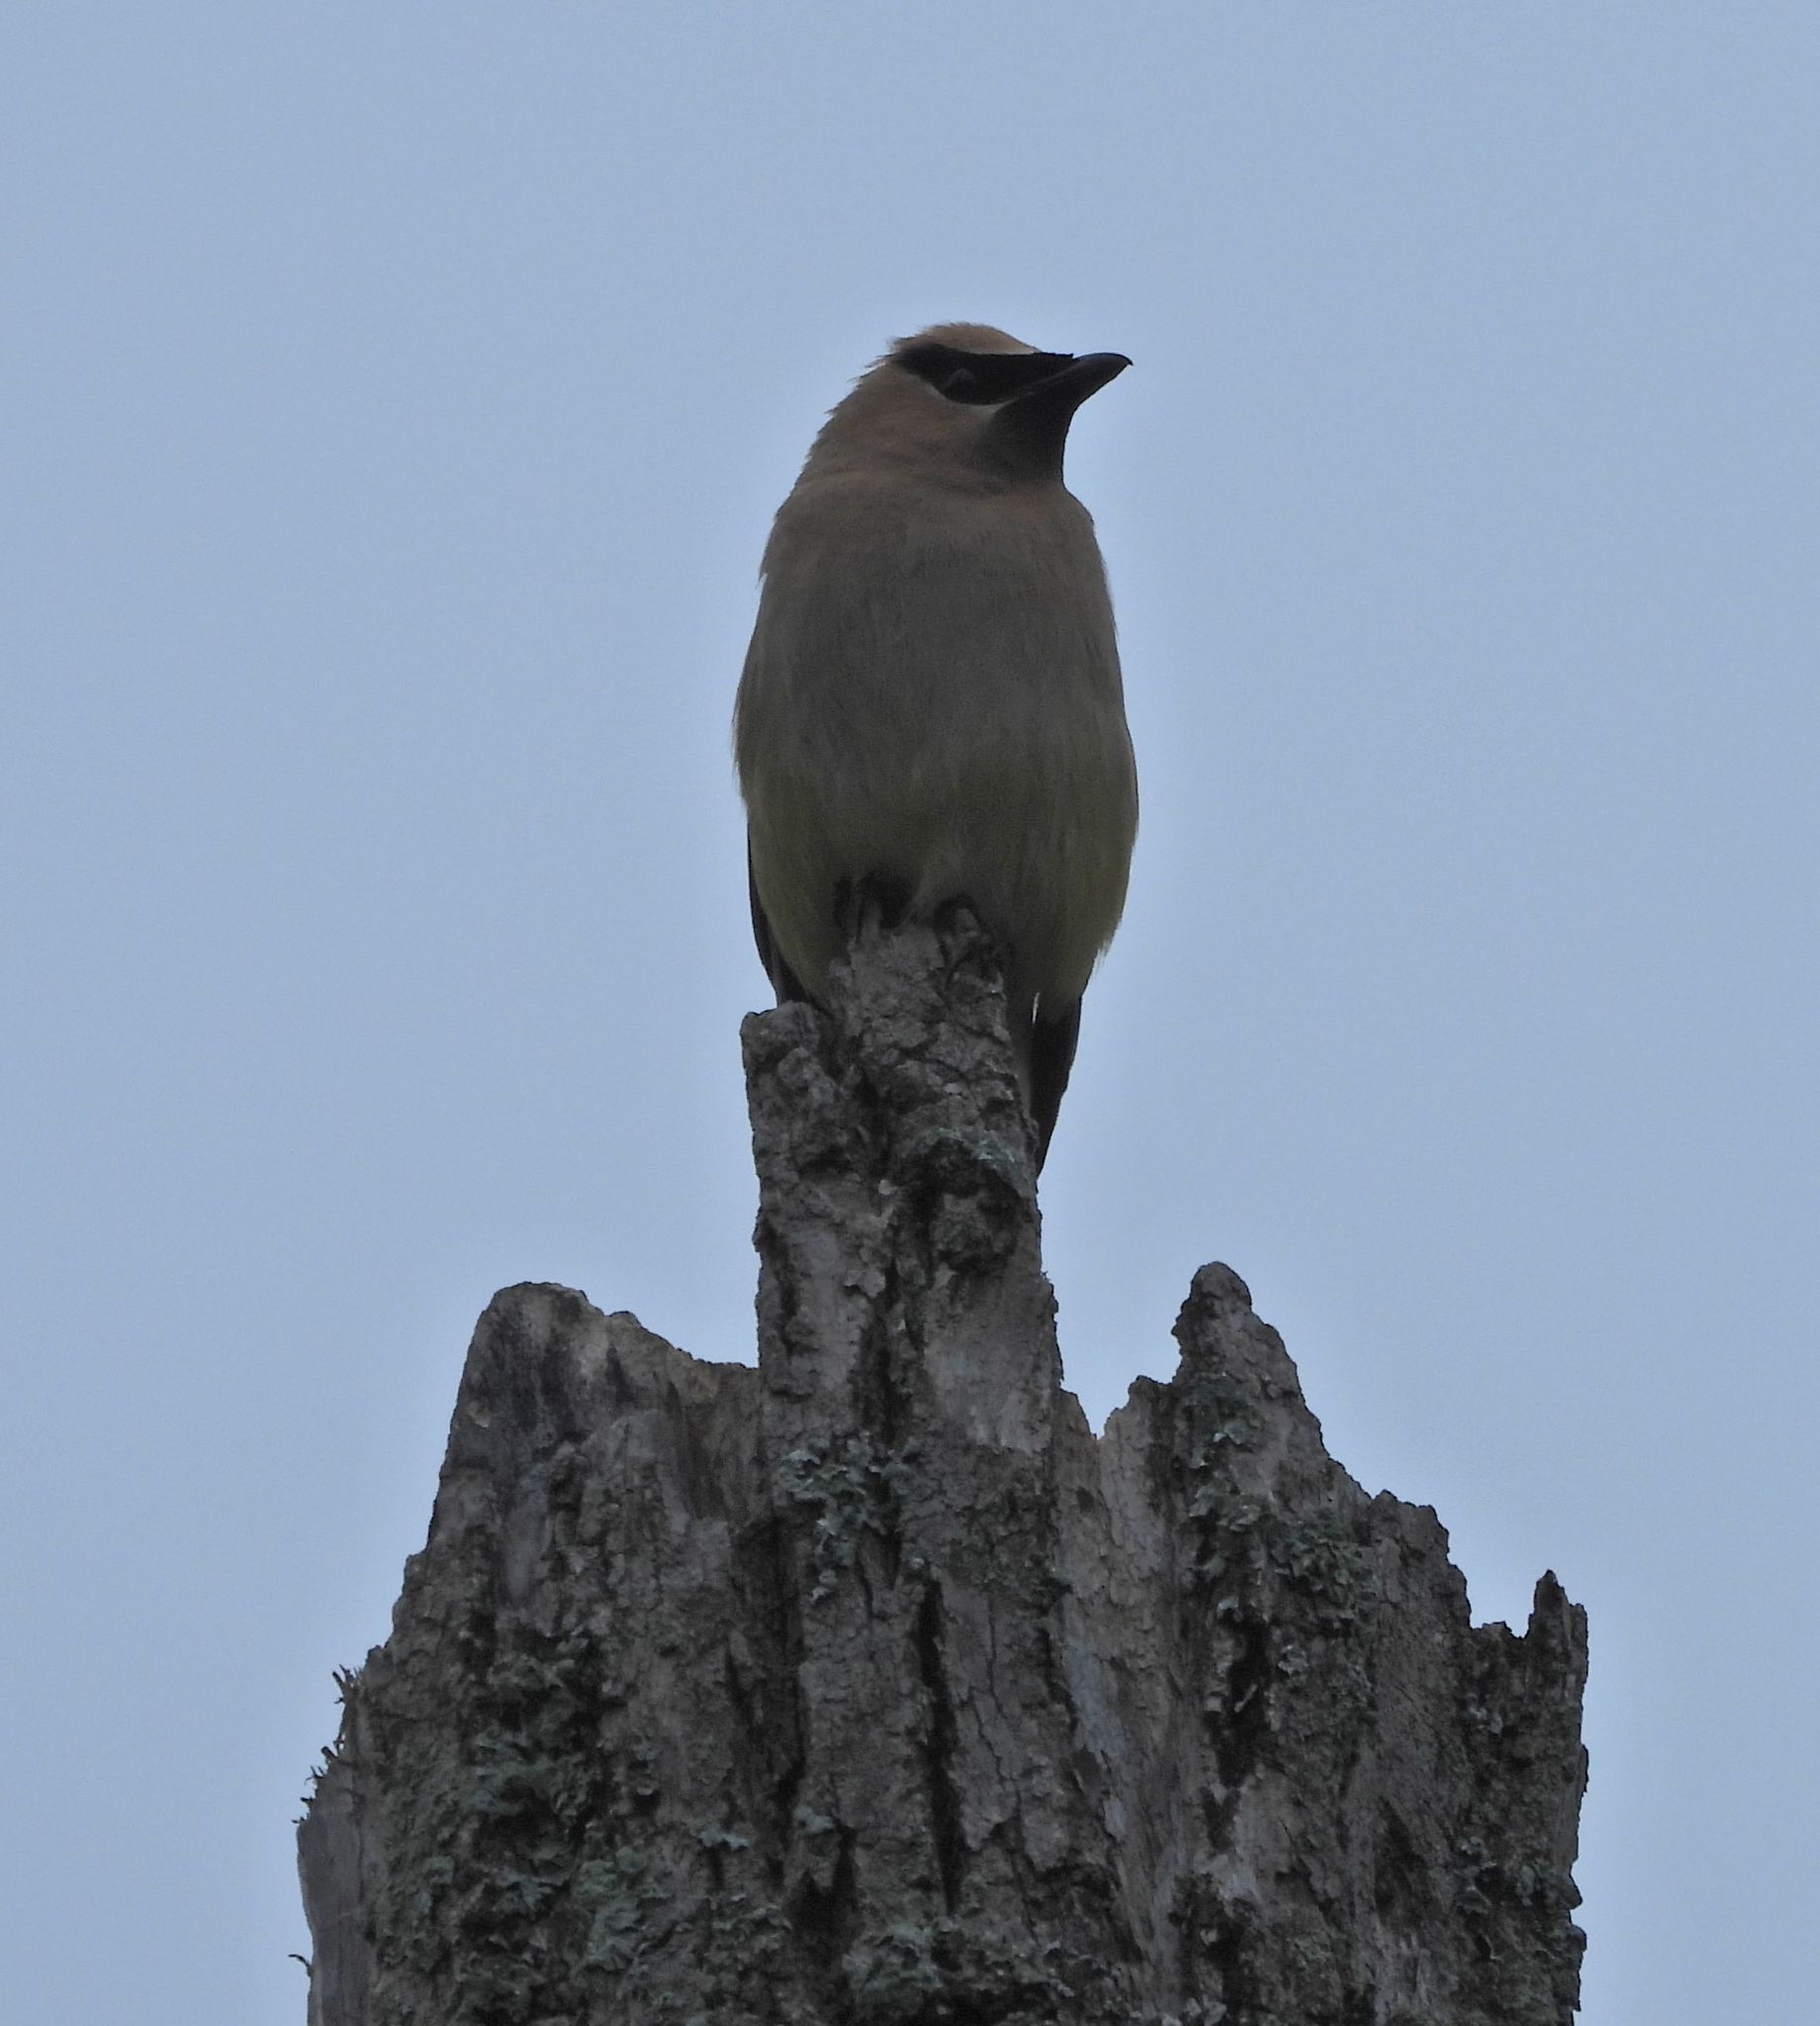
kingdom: Animalia
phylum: Chordata
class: Aves
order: Passeriformes
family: Bombycillidae
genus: Bombycilla
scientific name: Bombycilla cedrorum
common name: Cedar waxwing
